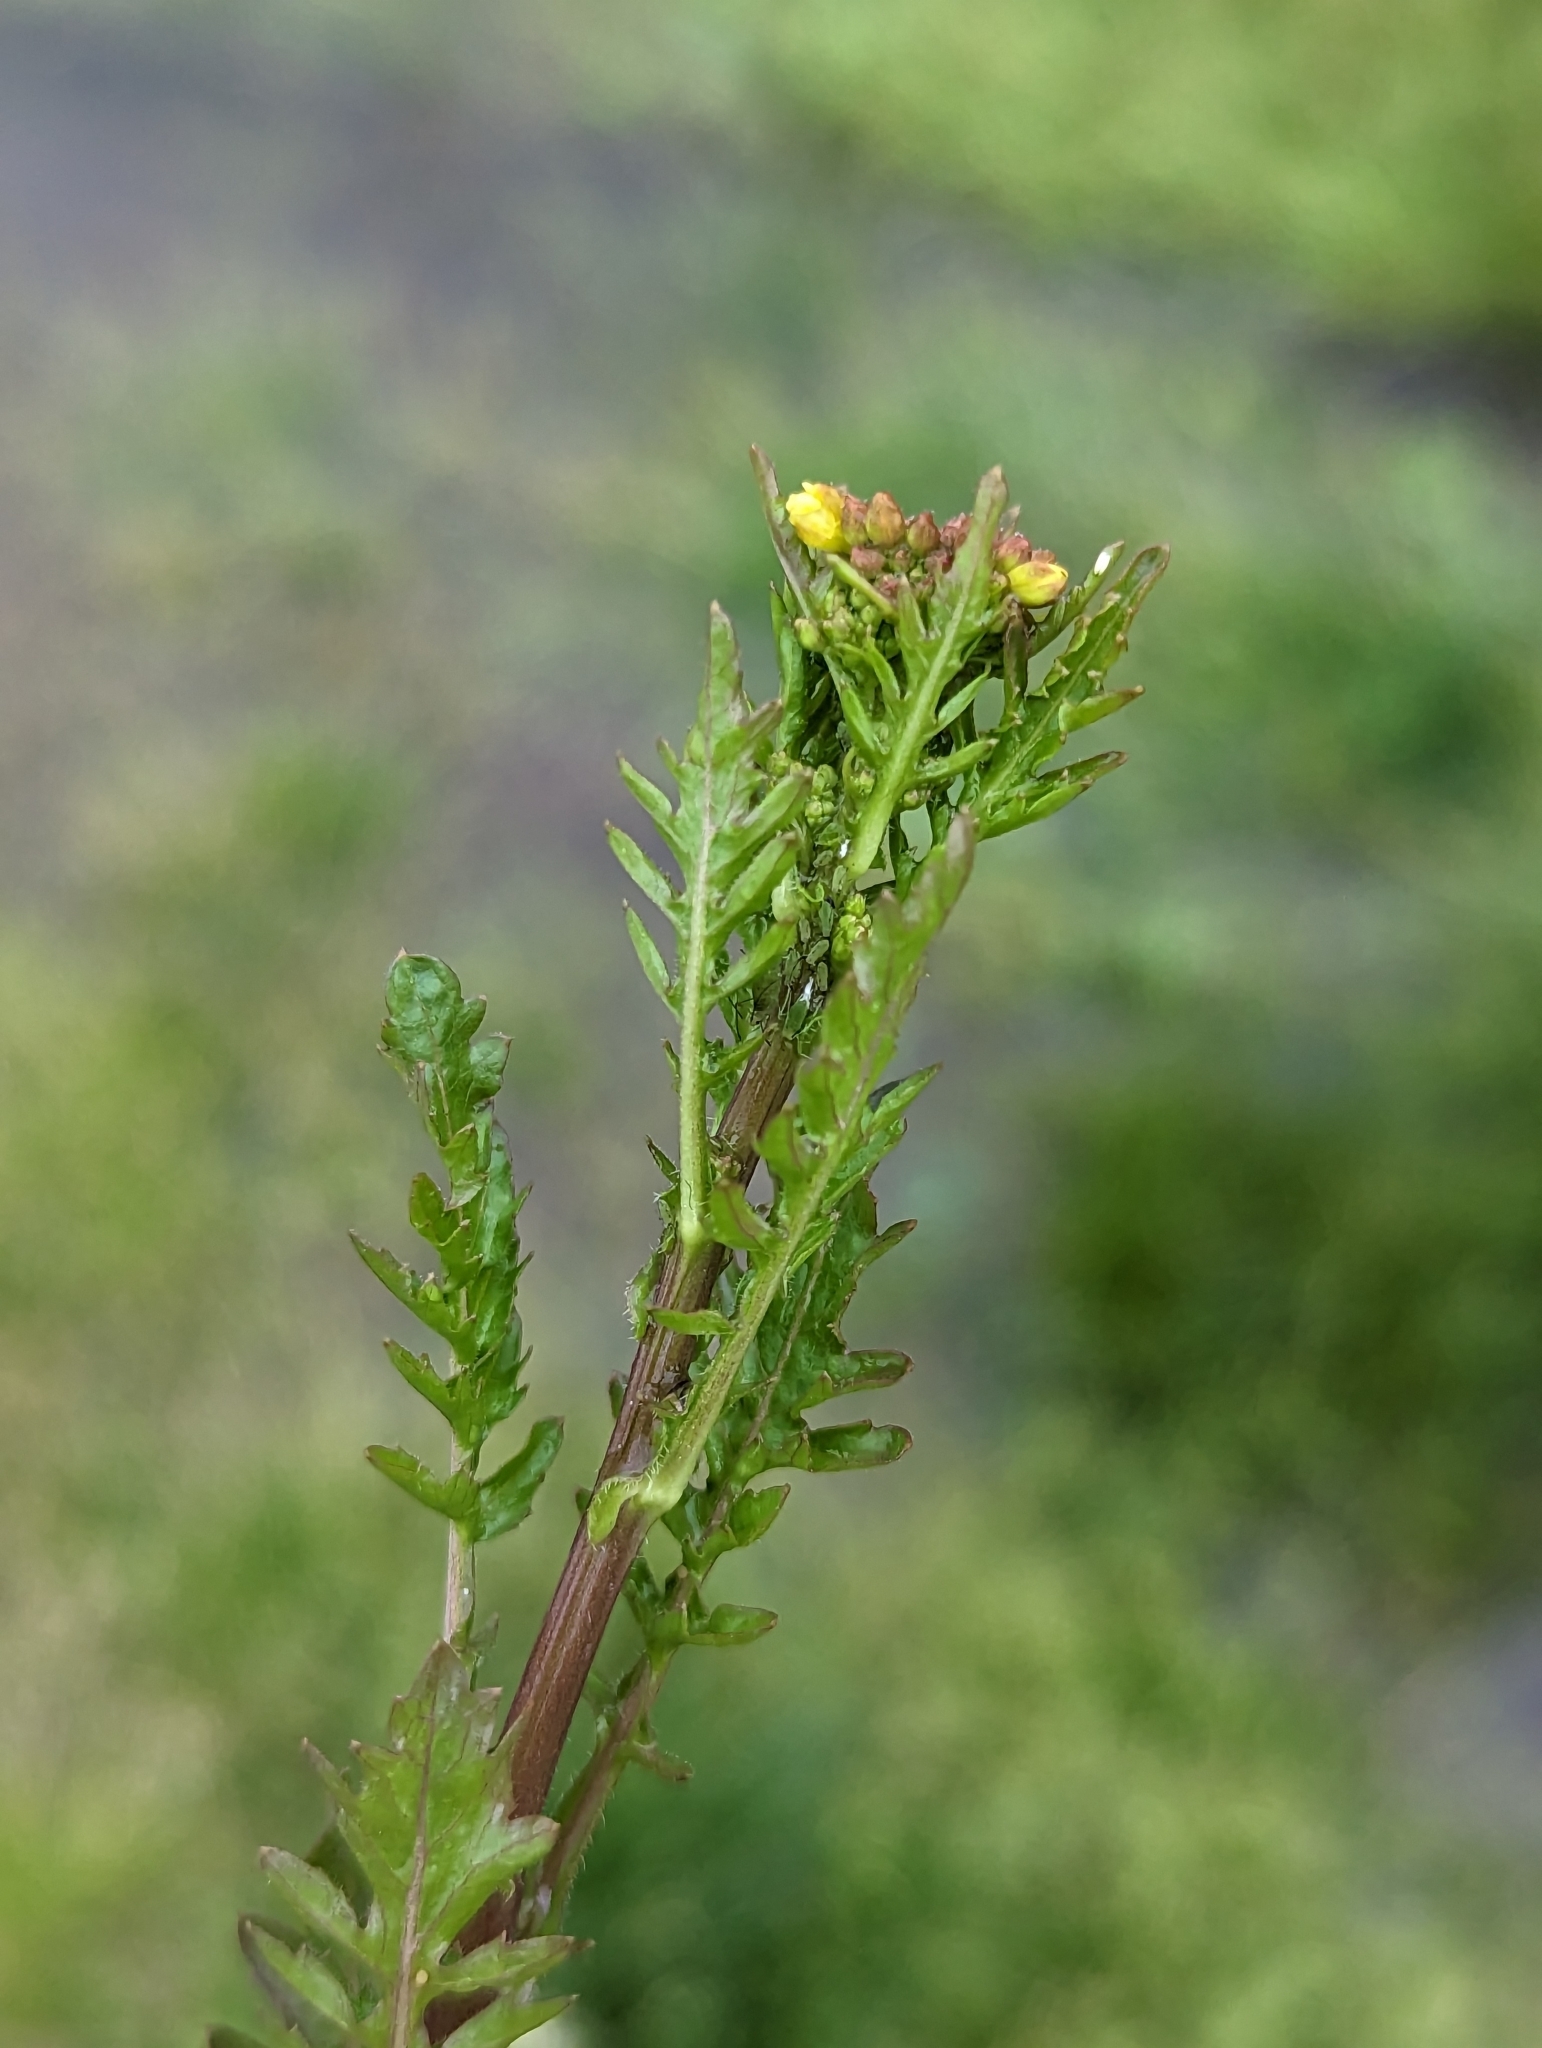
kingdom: Plantae
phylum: Tracheophyta
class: Magnoliopsida
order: Brassicales
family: Brassicaceae
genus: Rorippa
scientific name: Rorippa sylvestris
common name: Creeping yellowcress
